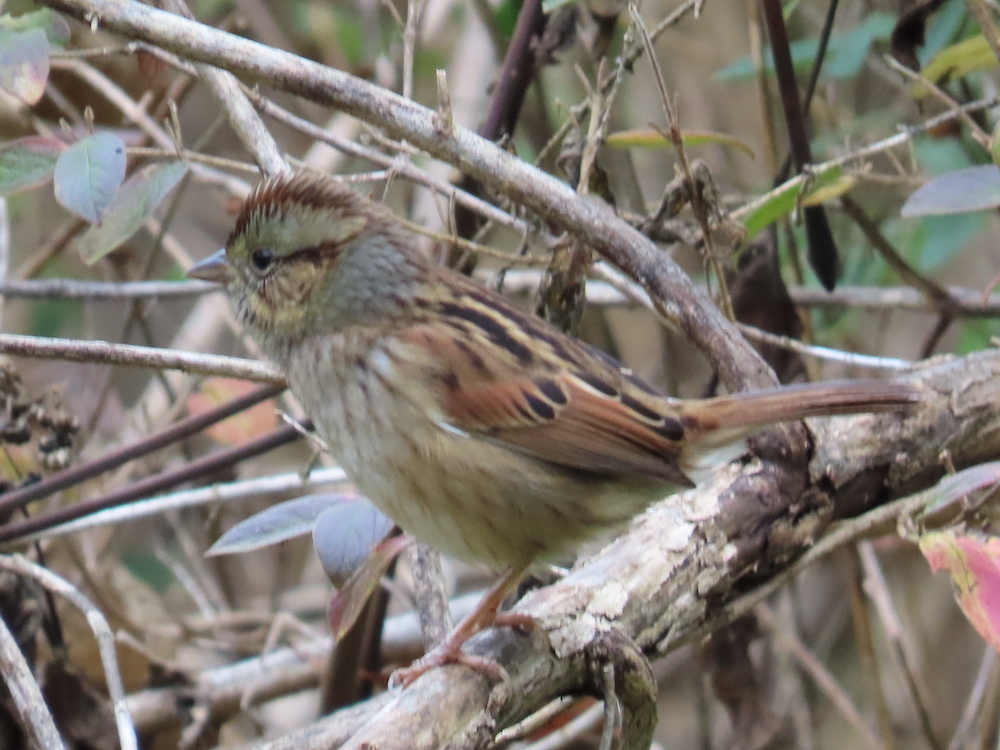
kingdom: Animalia
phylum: Chordata
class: Aves
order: Passeriformes
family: Passerellidae
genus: Melospiza
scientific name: Melospiza georgiana
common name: Swamp sparrow
